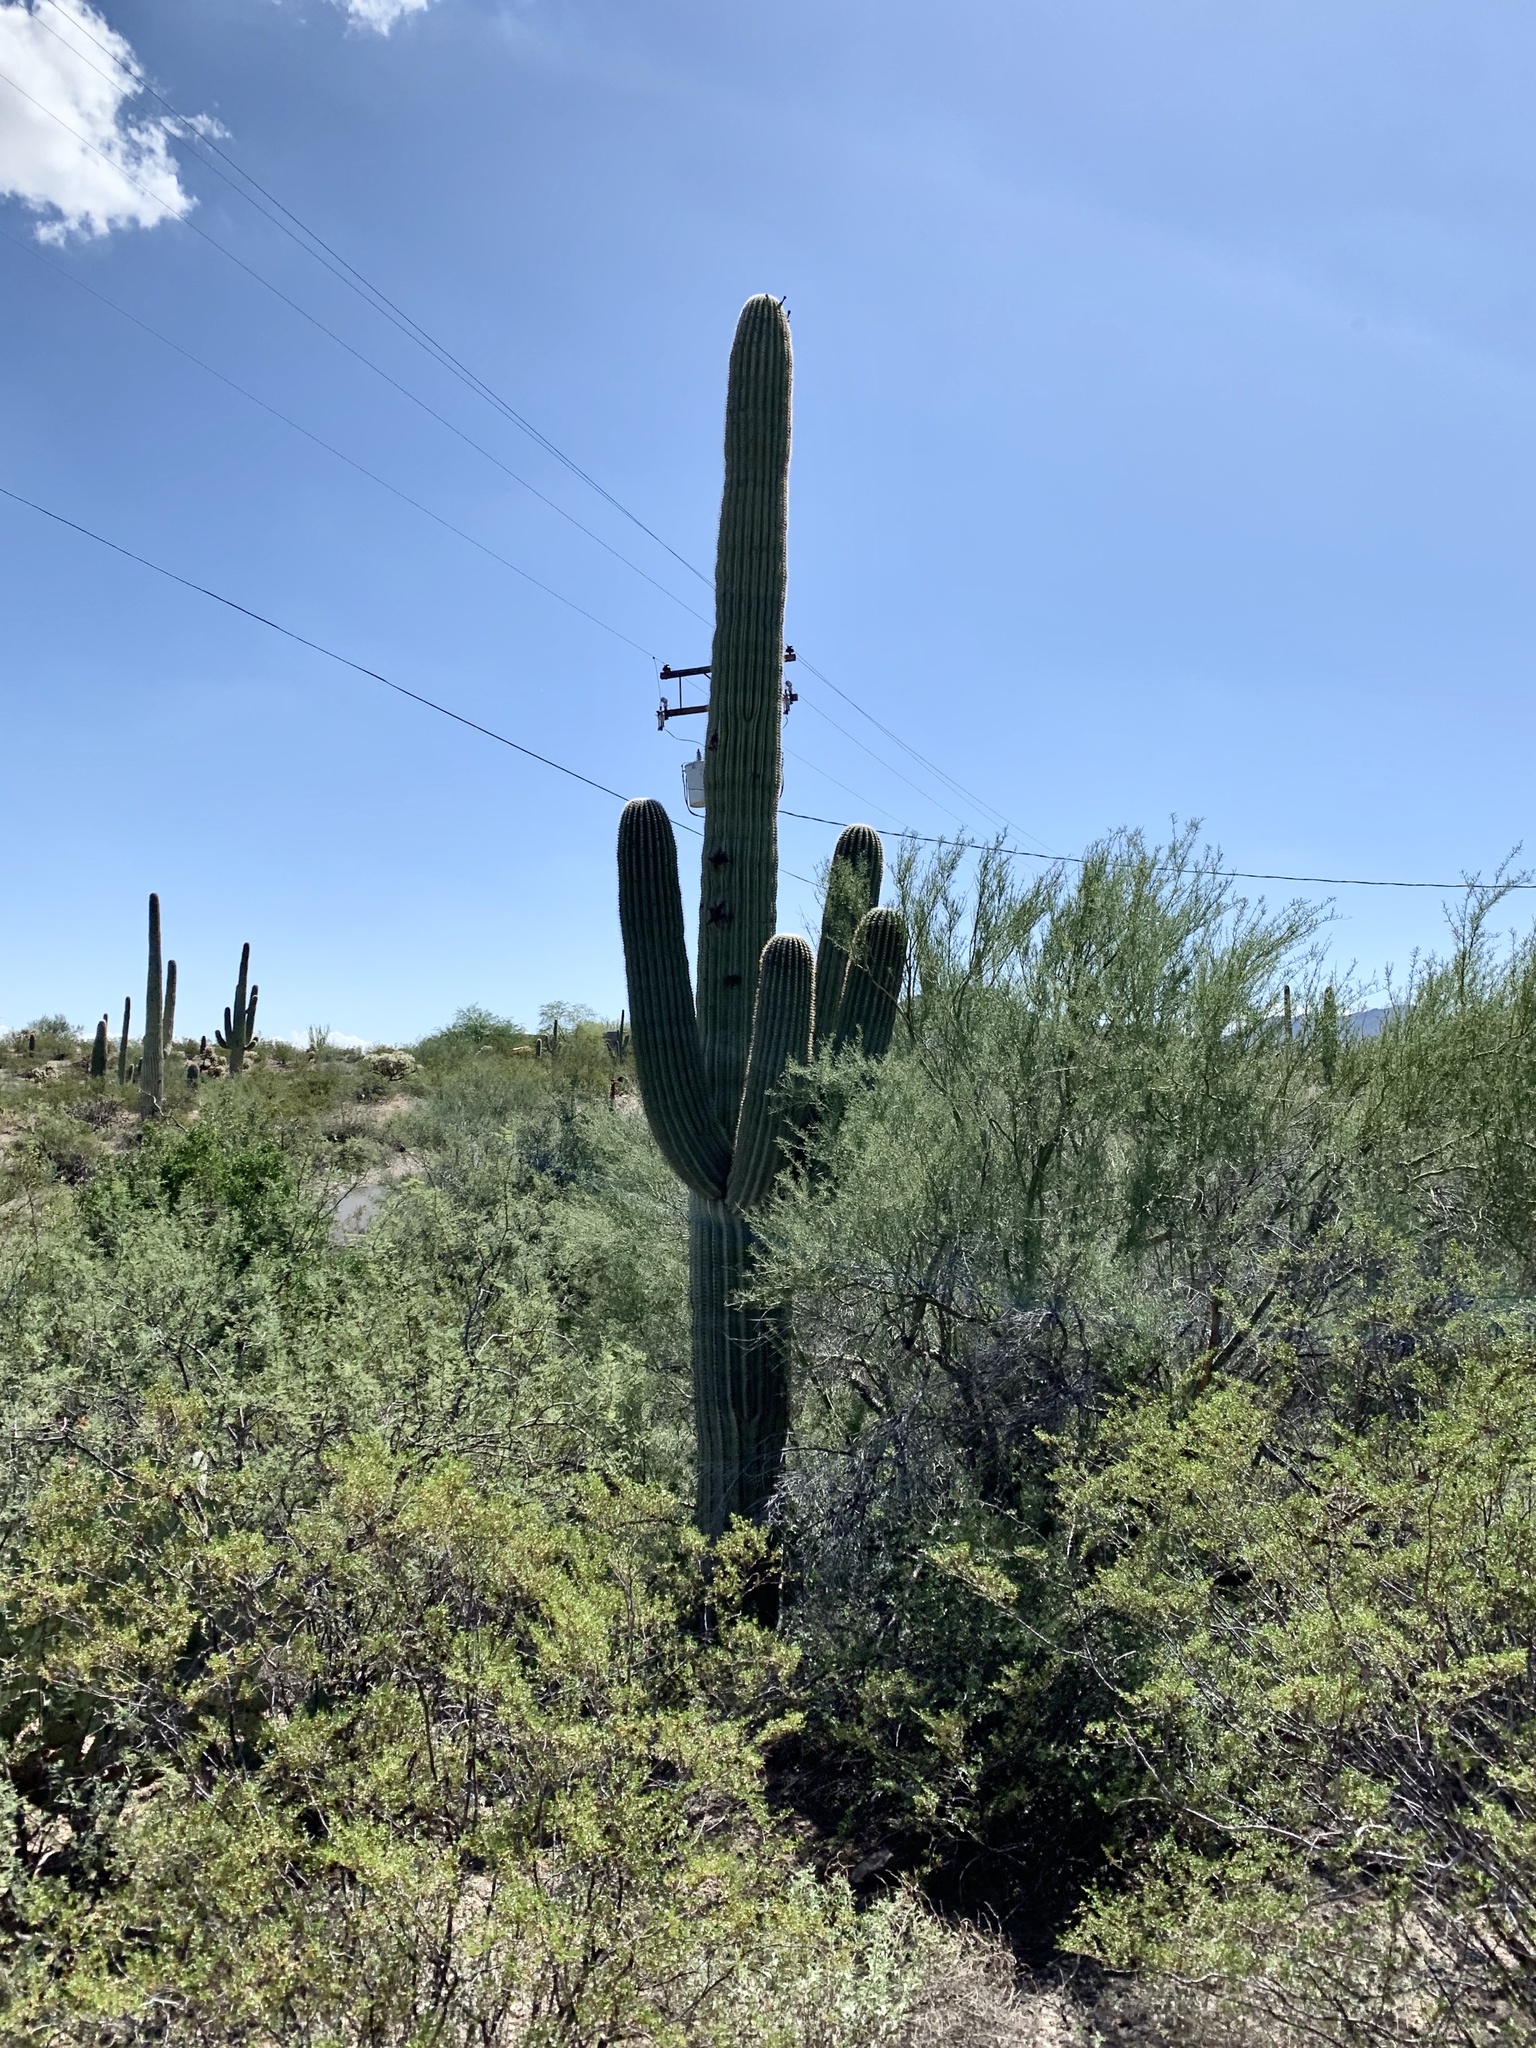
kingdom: Plantae
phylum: Tracheophyta
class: Magnoliopsida
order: Caryophyllales
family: Cactaceae
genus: Carnegiea
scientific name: Carnegiea gigantea
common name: Saguaro
